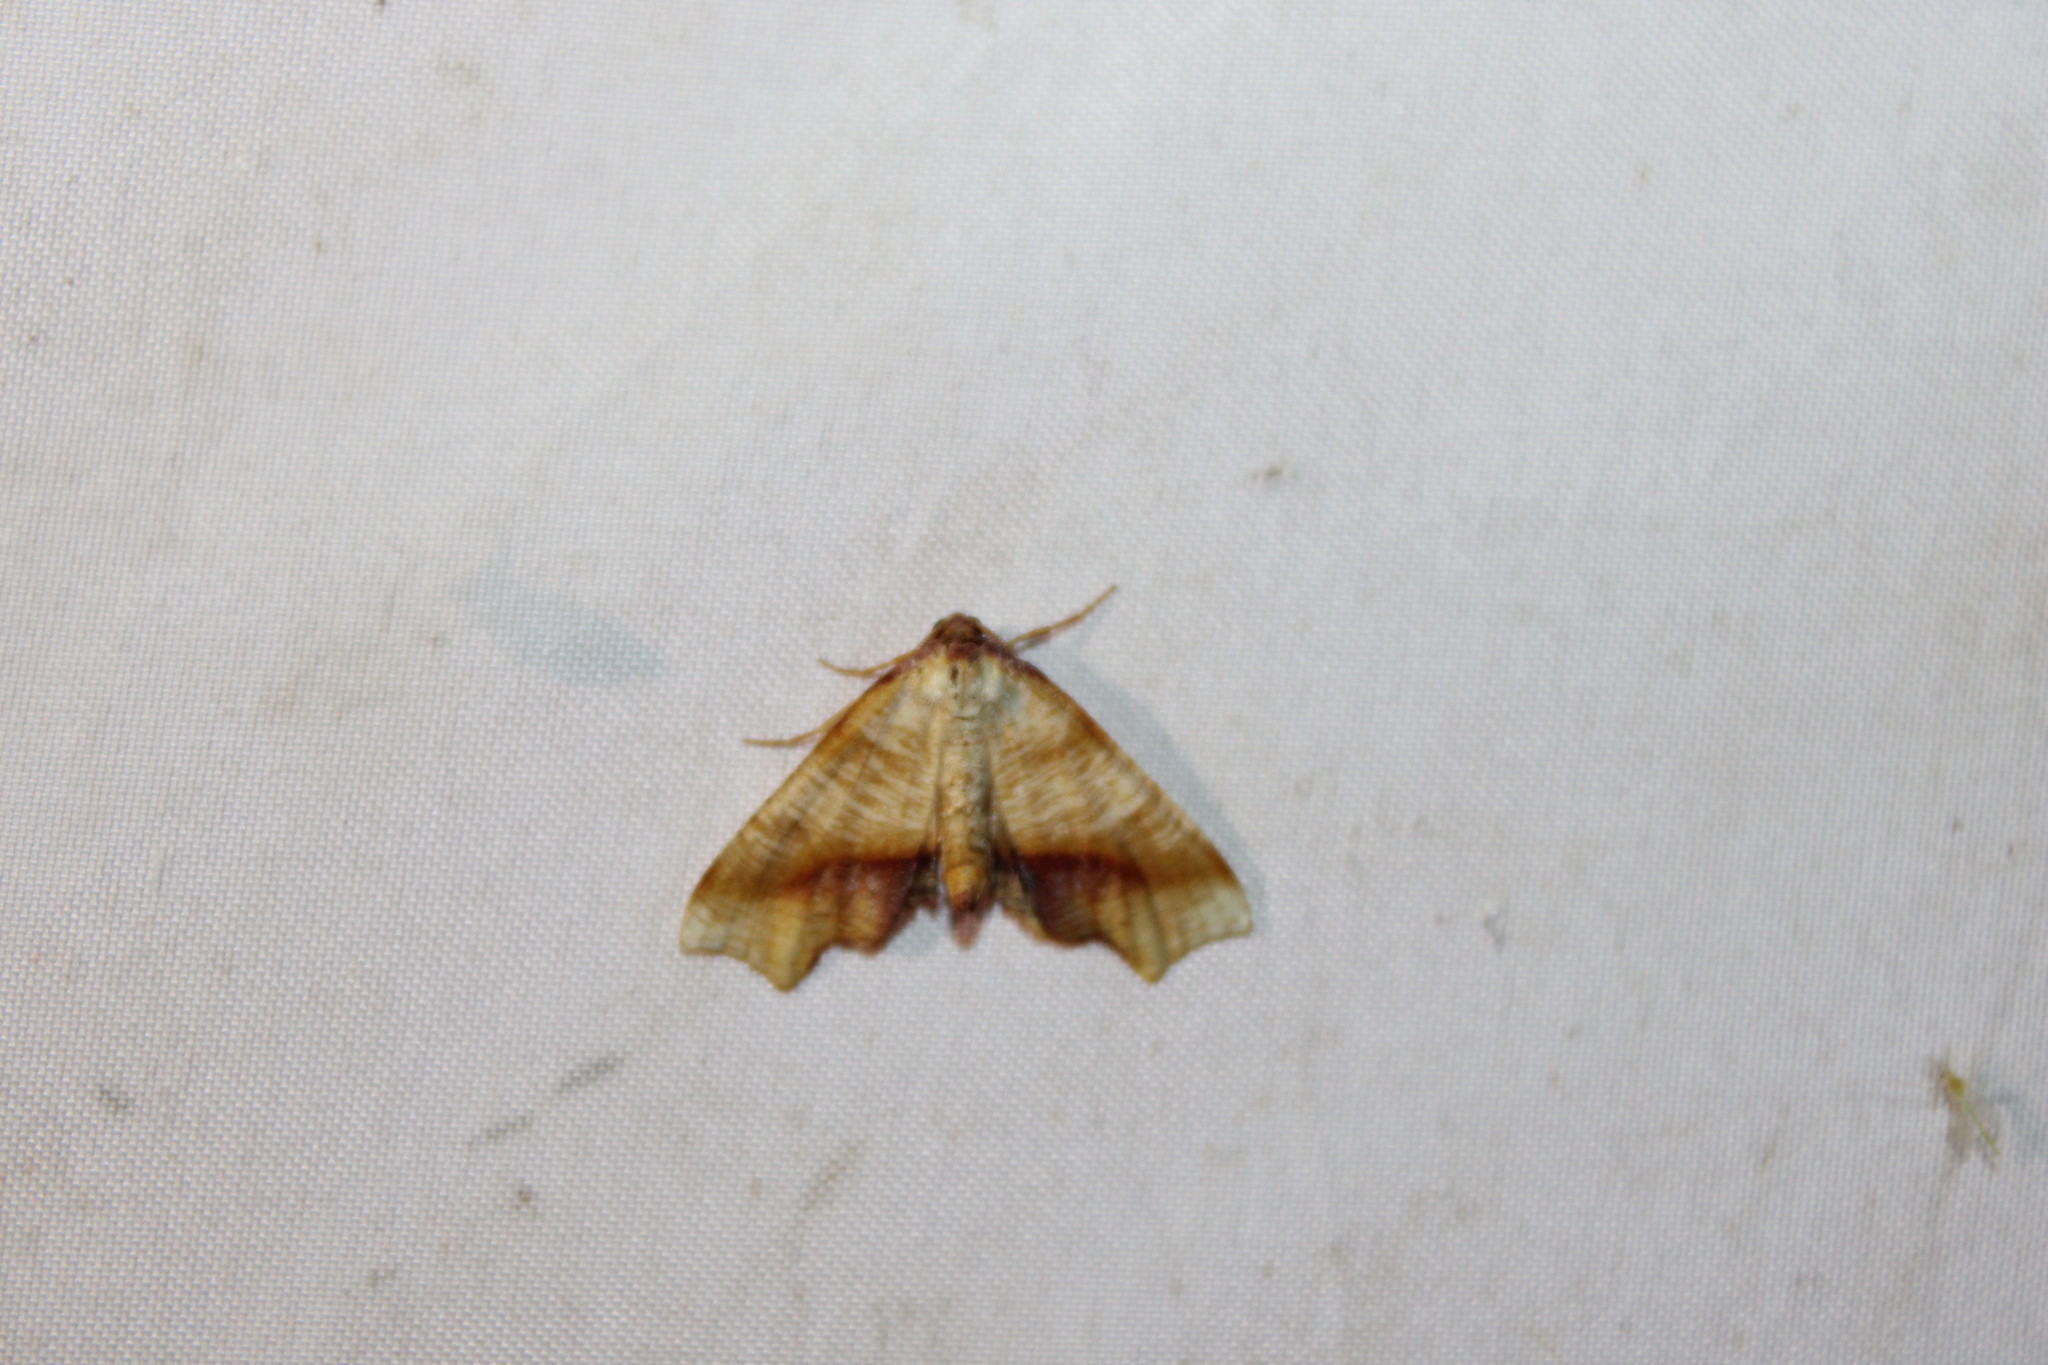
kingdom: Animalia
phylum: Arthropoda
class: Insecta
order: Lepidoptera
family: Geometridae
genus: Plagodis
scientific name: Plagodis phlogosaria
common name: Straight-lined plagodis
